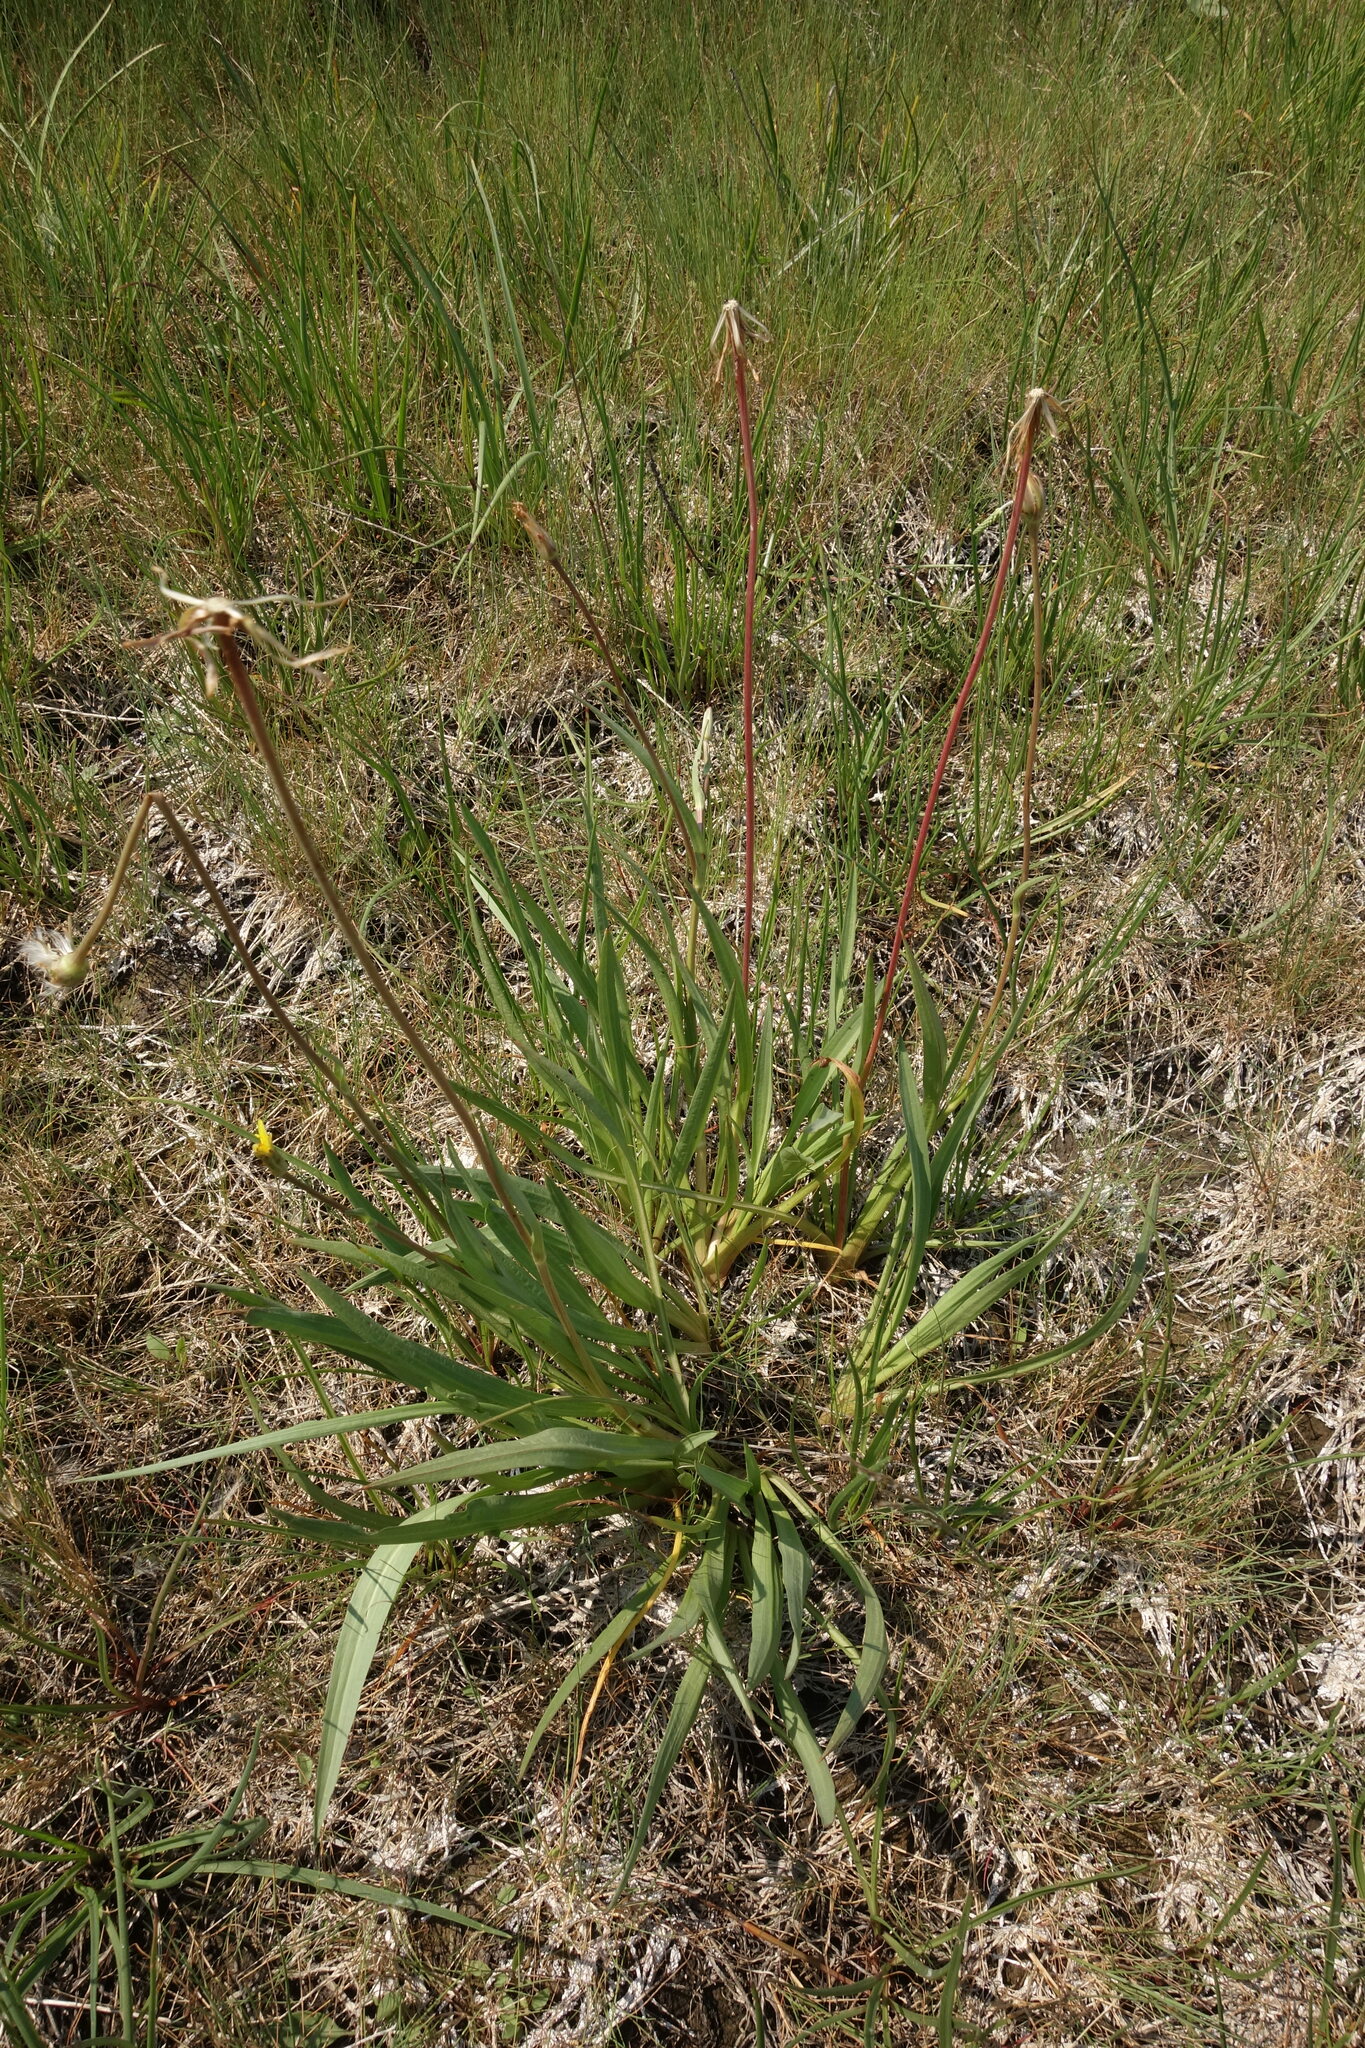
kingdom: Plantae
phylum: Tracheophyta
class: Magnoliopsida
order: Asterales
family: Asteraceae
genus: Scorzonera
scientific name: Scorzonera parviflora
